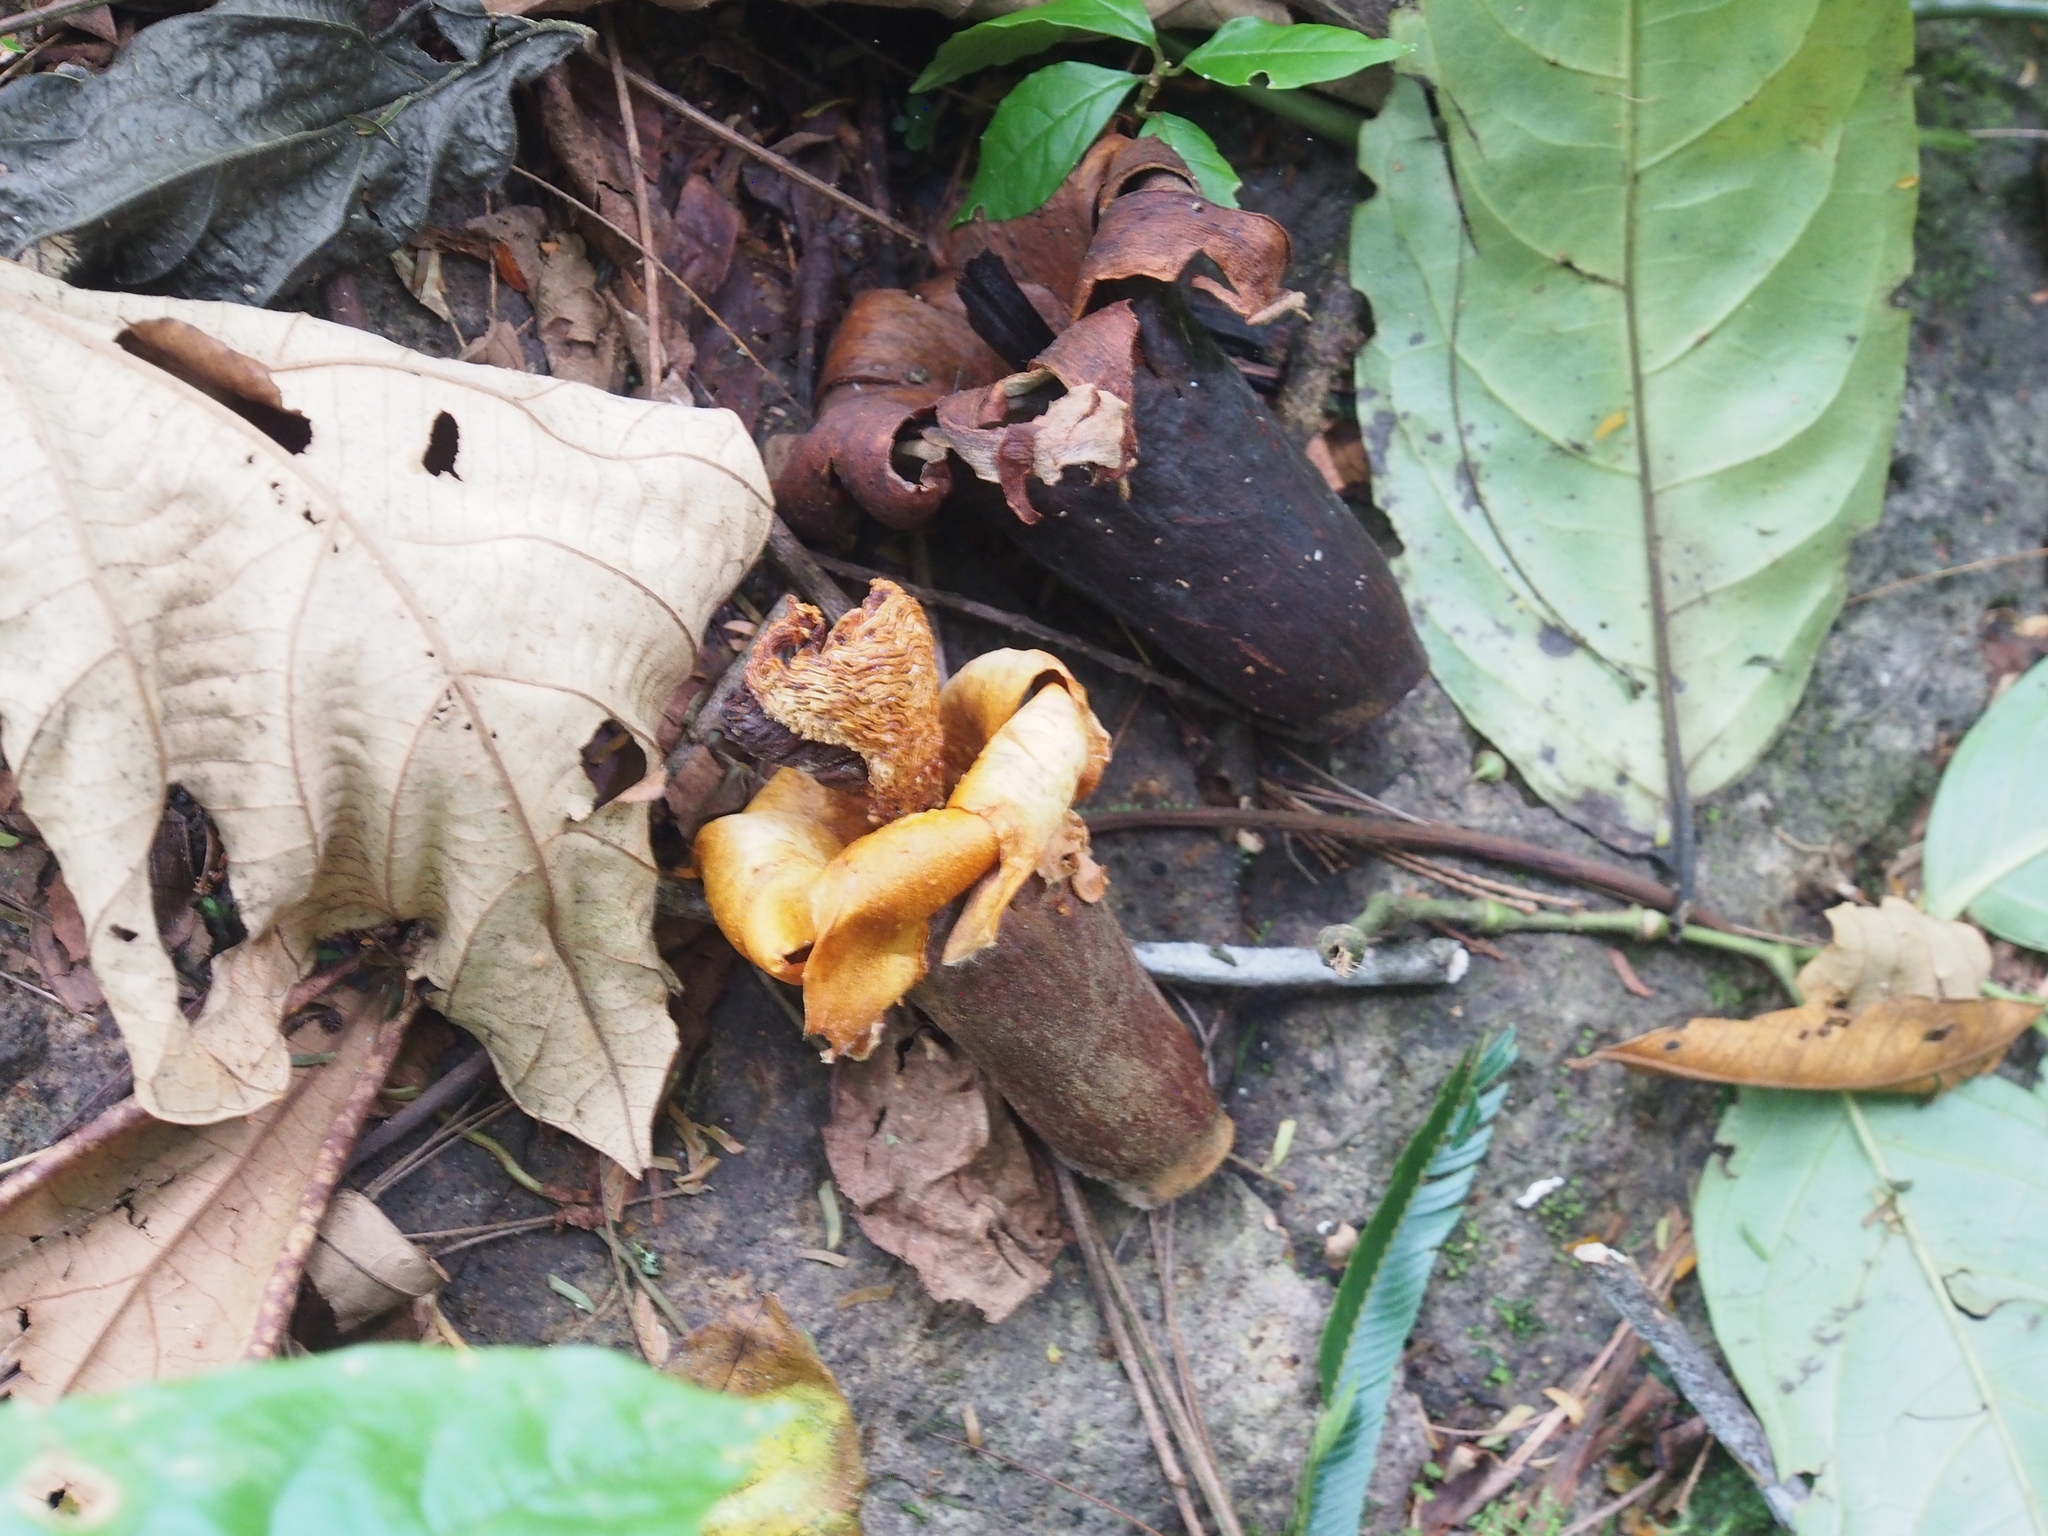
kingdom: Plantae
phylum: Tracheophyta
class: Magnoliopsida
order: Malvales
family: Malvaceae
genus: Ochroma
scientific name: Ochroma pyramidale
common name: Balsa
